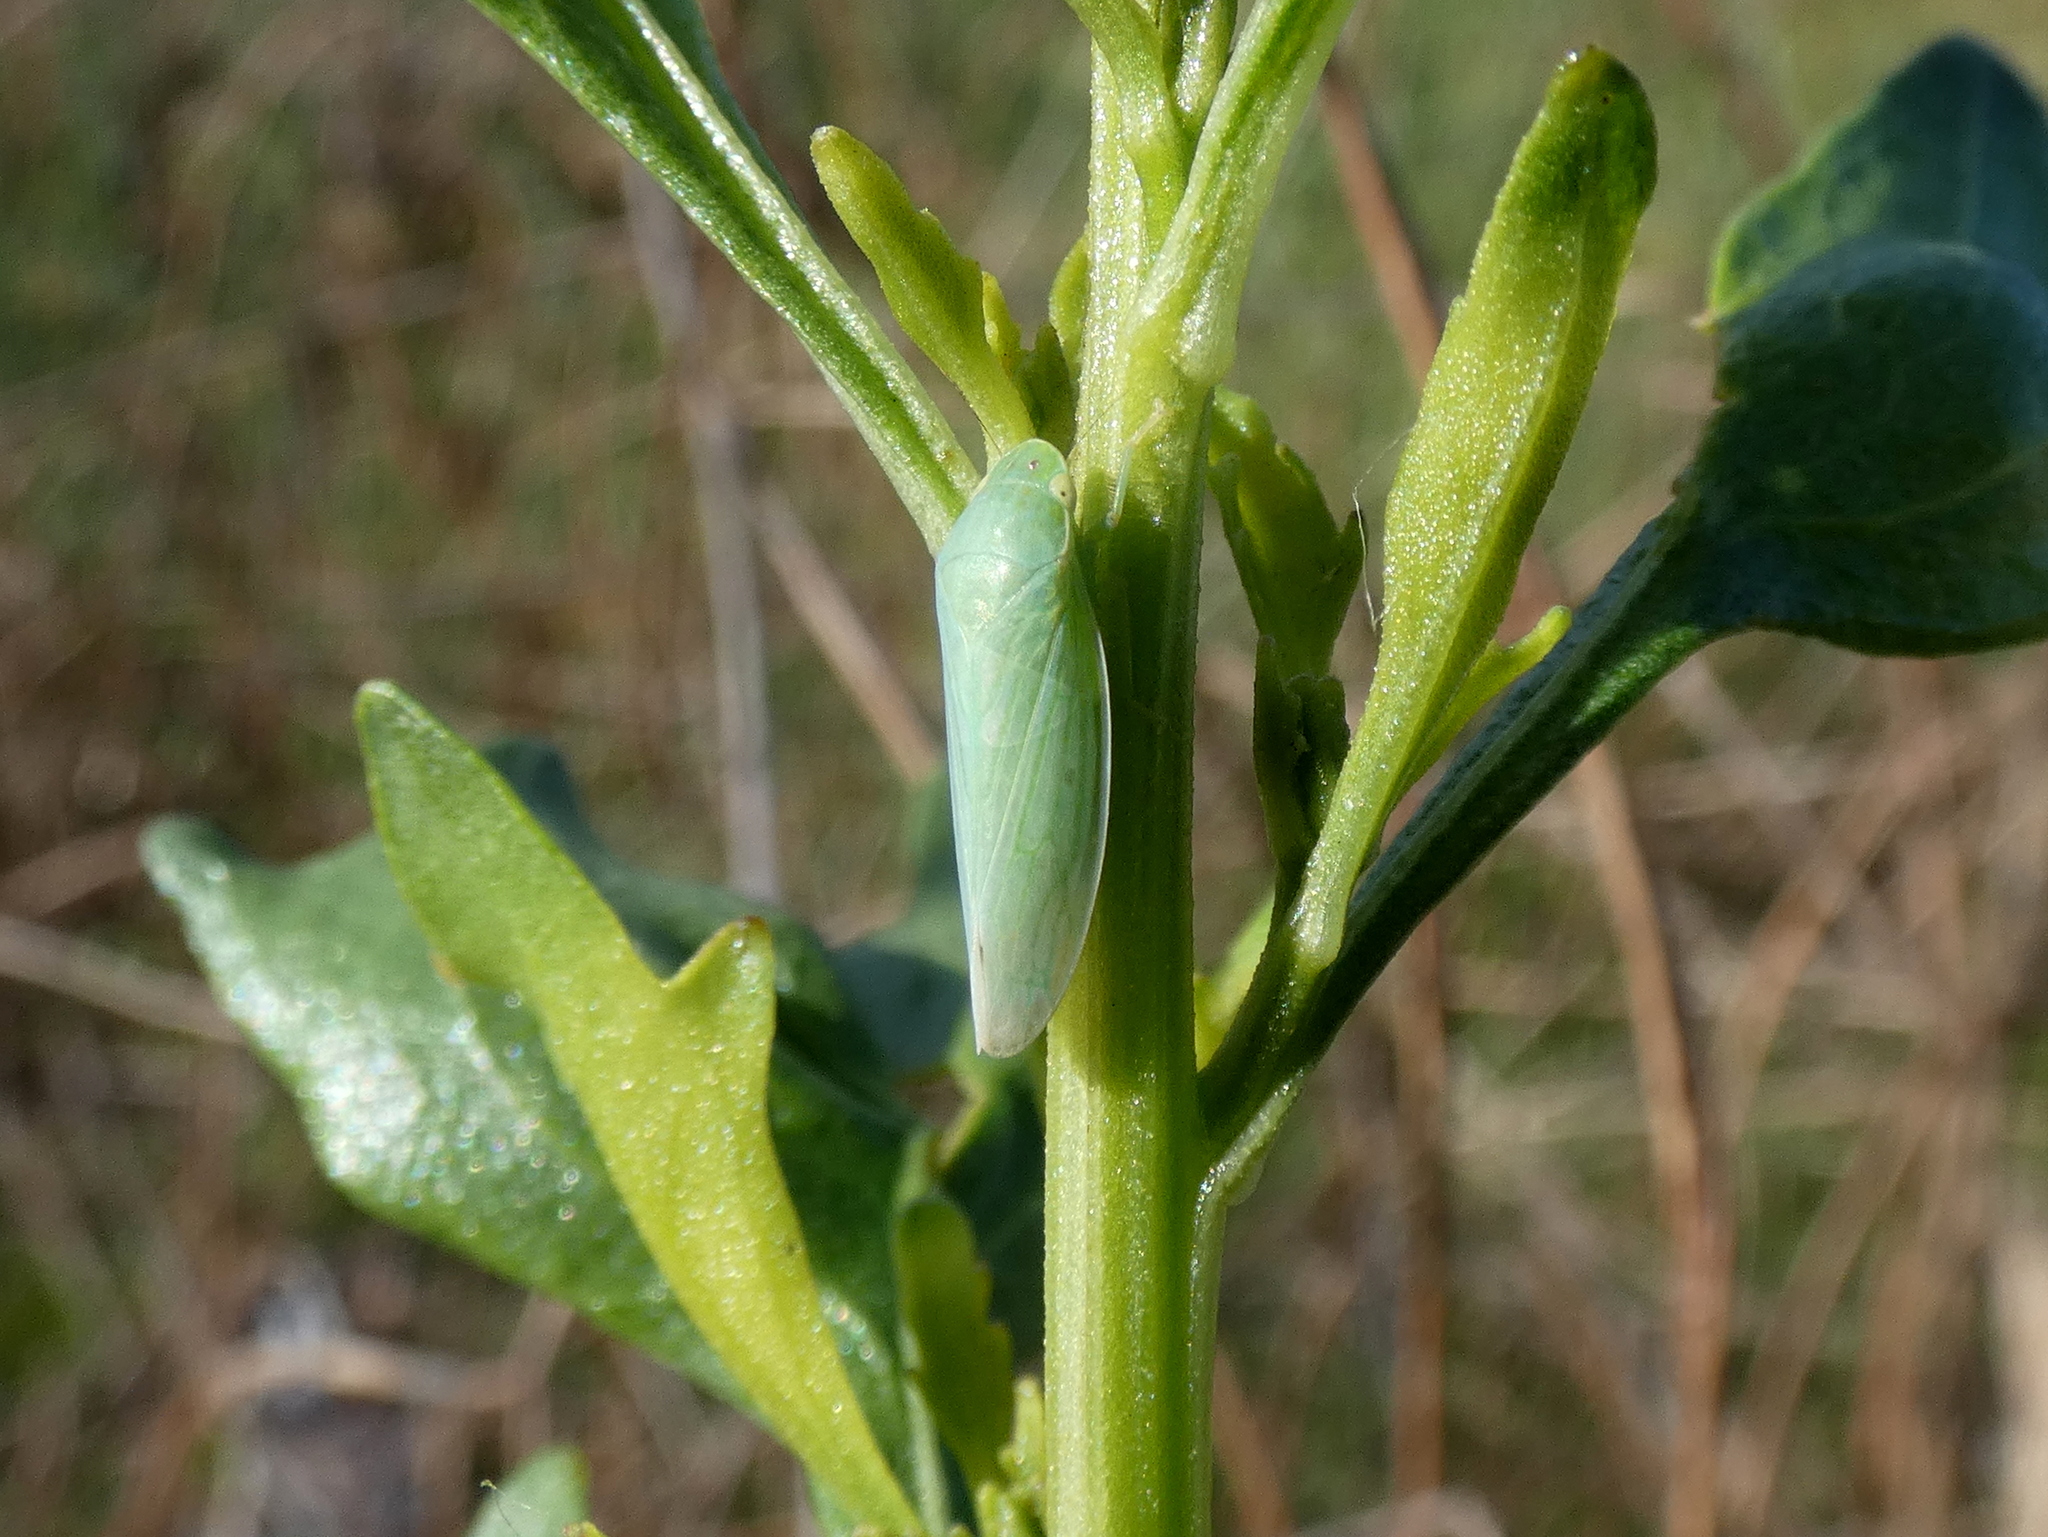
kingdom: Animalia
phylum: Arthropoda
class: Insecta
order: Hemiptera
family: Cicadellidae
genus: Gyponana
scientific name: Gyponana tenella
